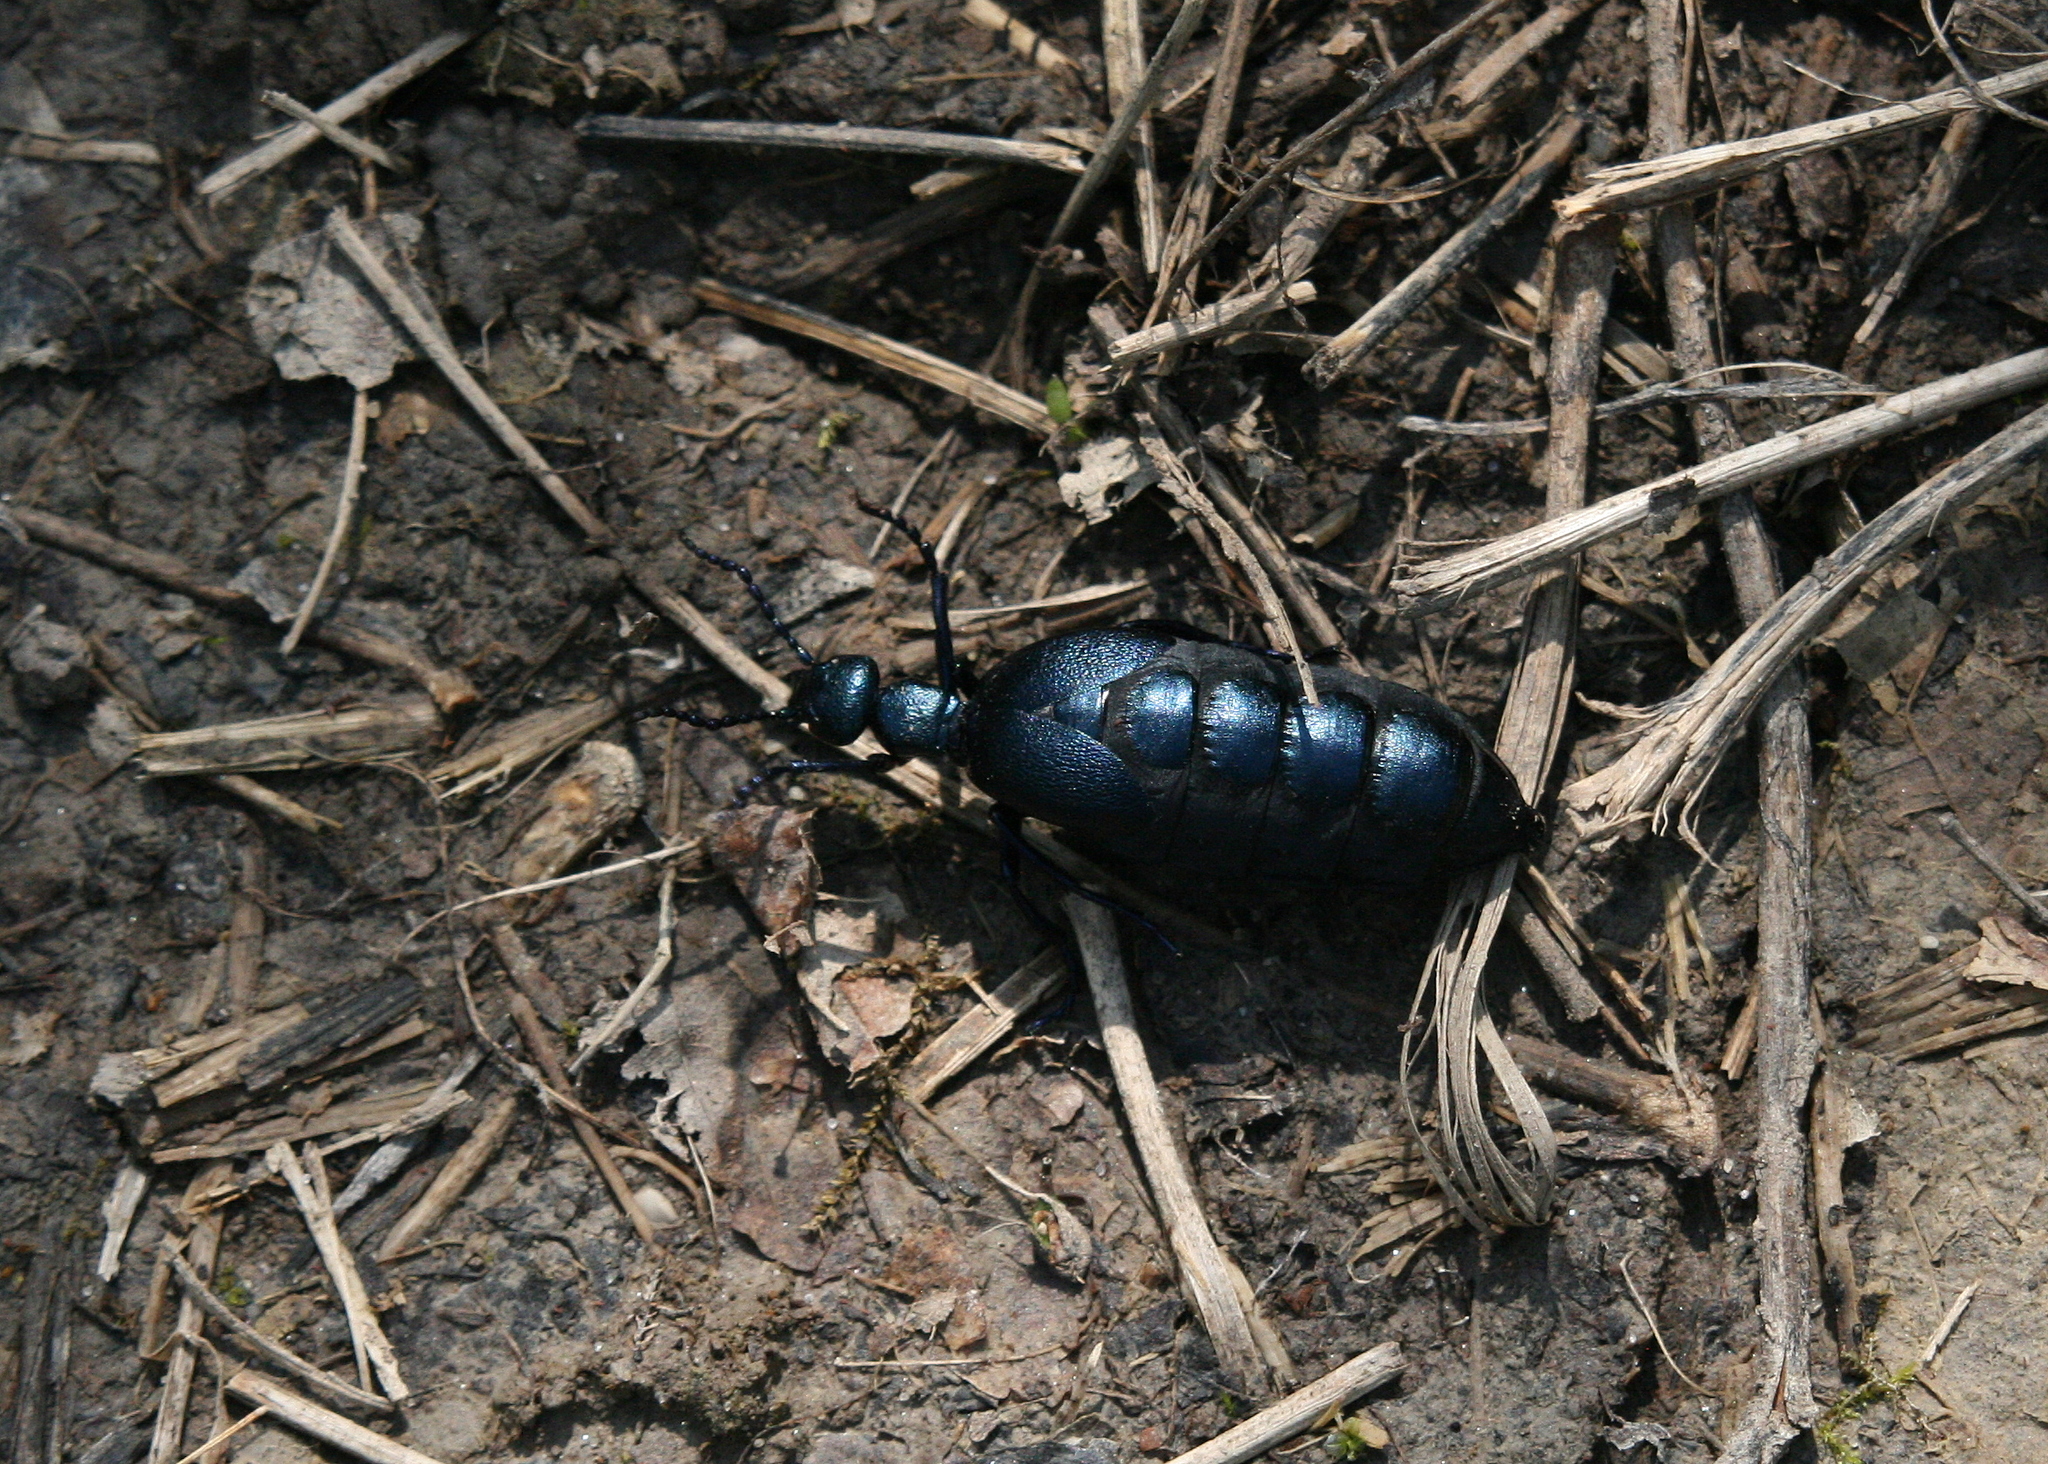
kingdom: Animalia
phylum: Arthropoda
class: Insecta
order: Coleoptera
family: Meloidae
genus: Meloe
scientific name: Meloe violaceus
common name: Violet oil-beetle
